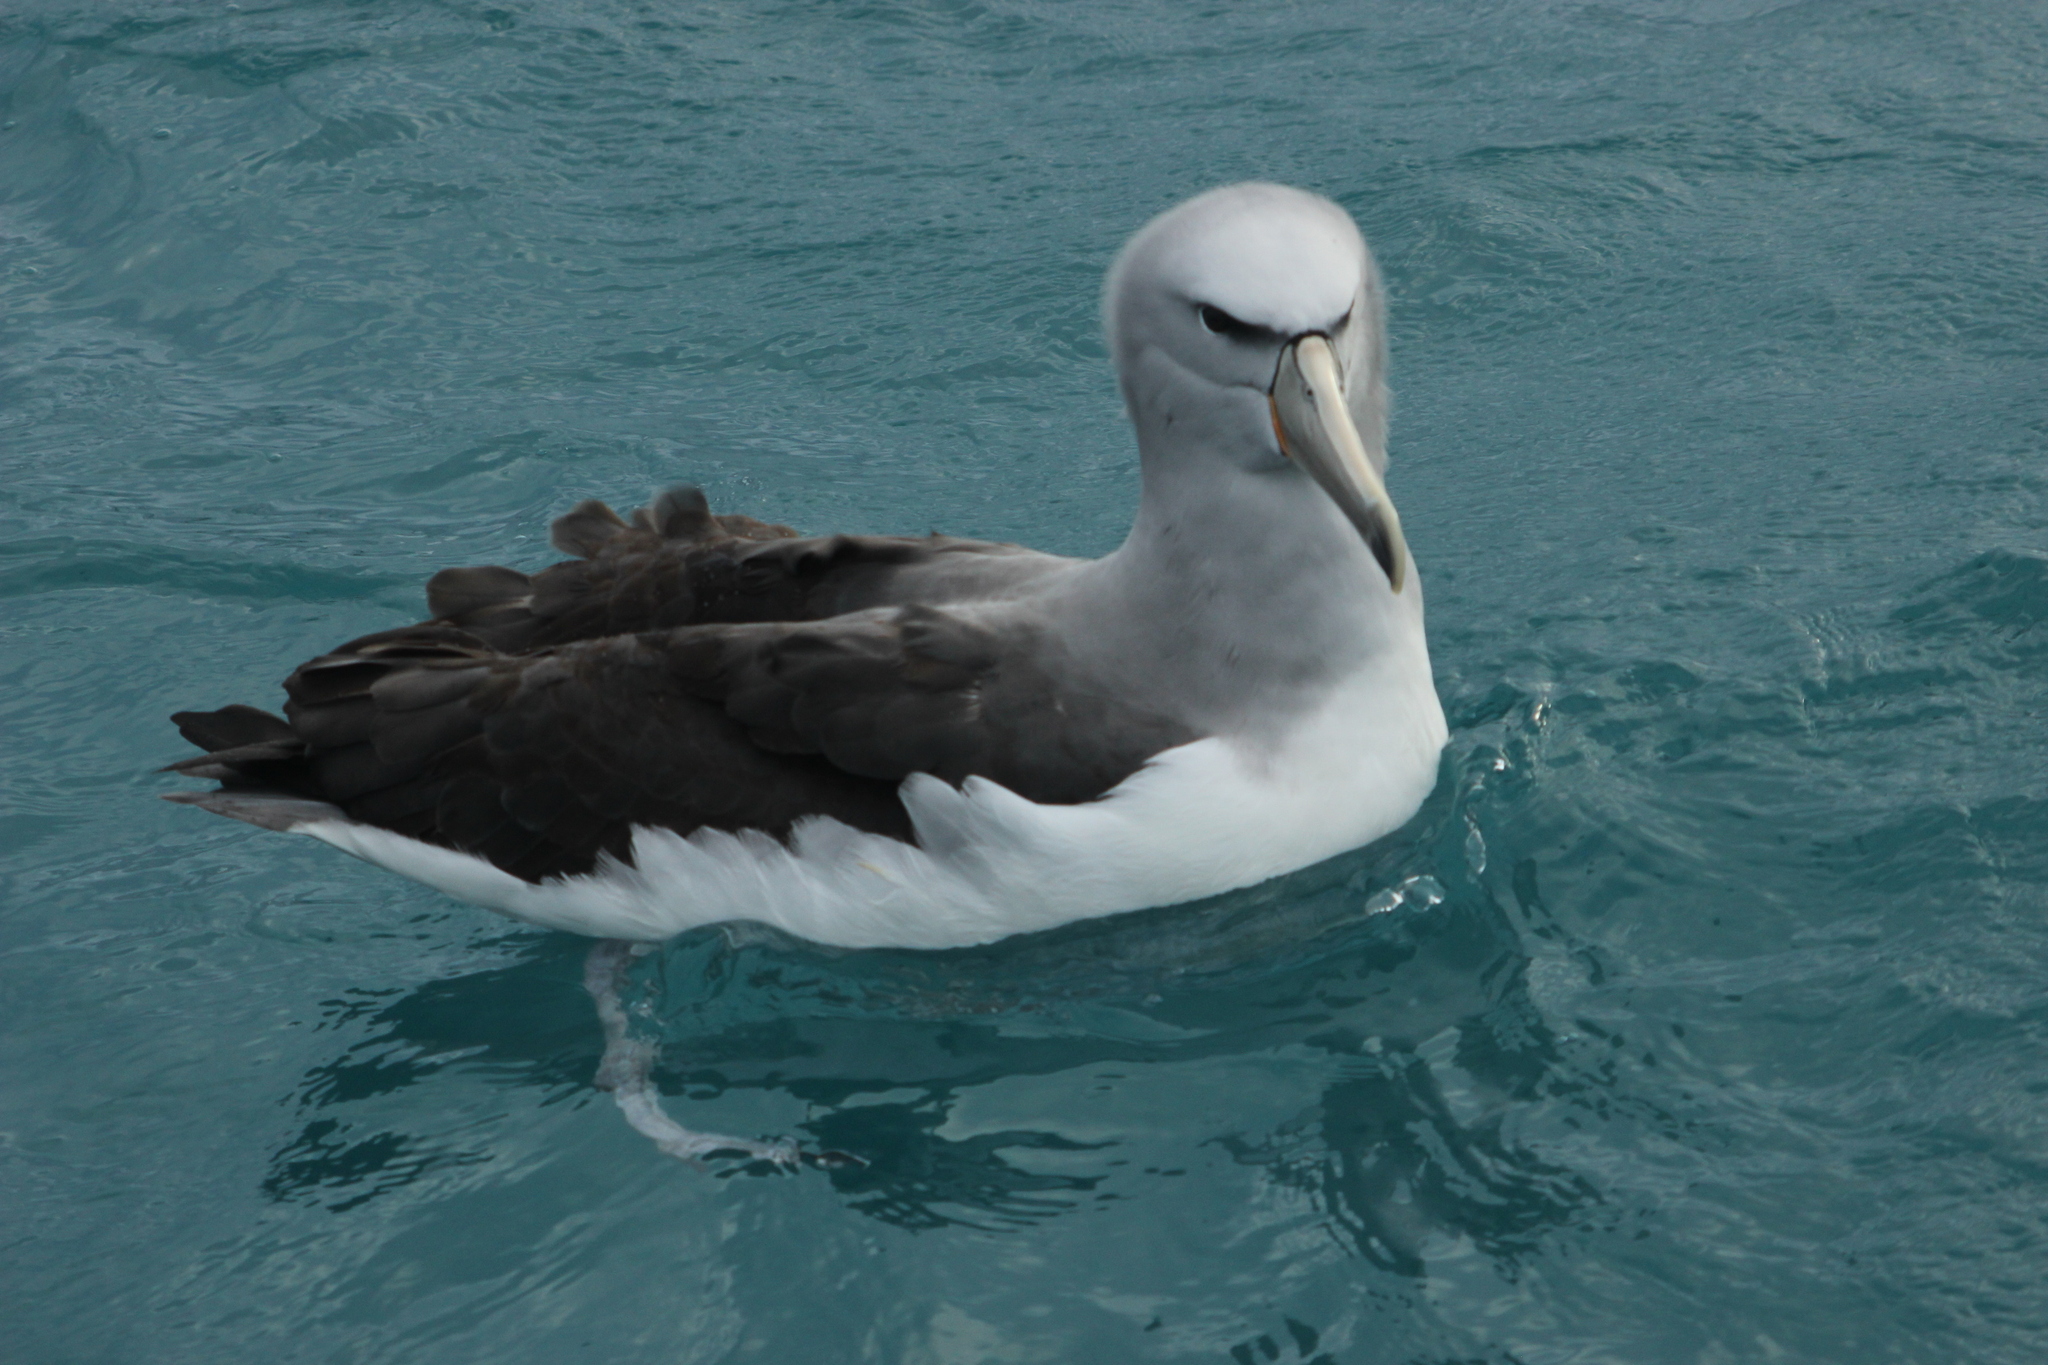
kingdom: Animalia
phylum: Chordata
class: Aves
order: Procellariiformes
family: Diomedeidae
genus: Thalassarche
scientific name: Thalassarche salvini
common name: Salvin's albatross
